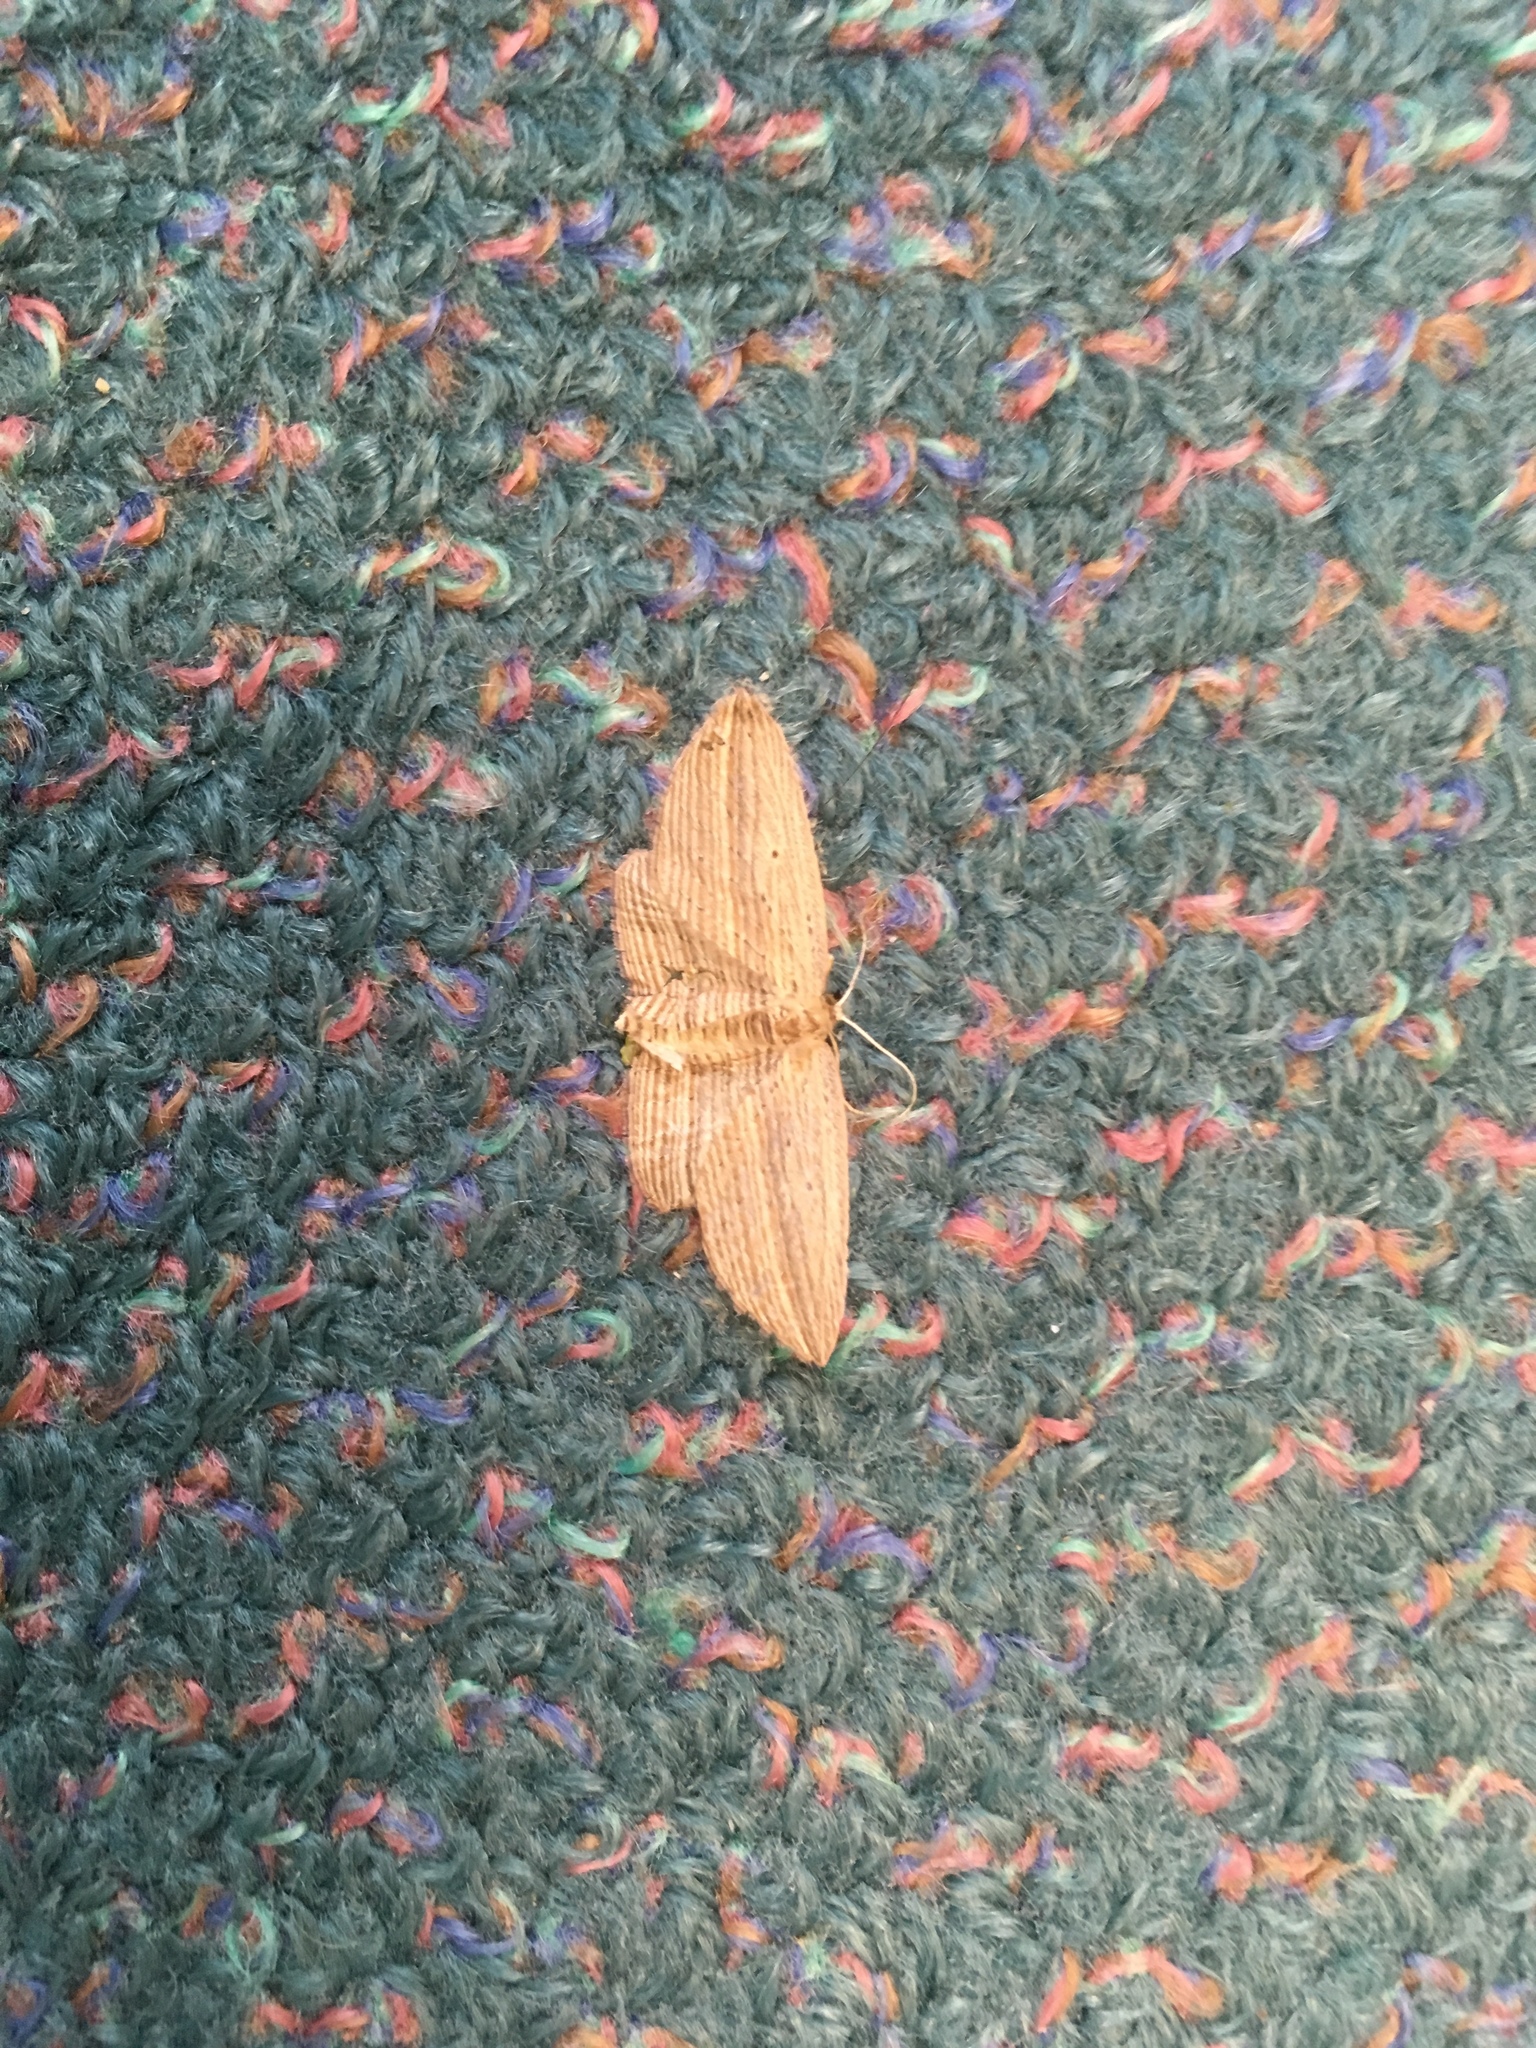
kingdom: Animalia
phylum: Arthropoda
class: Insecta
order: Lepidoptera
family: Geometridae
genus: Epiphryne
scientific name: Epiphryne verriculata
